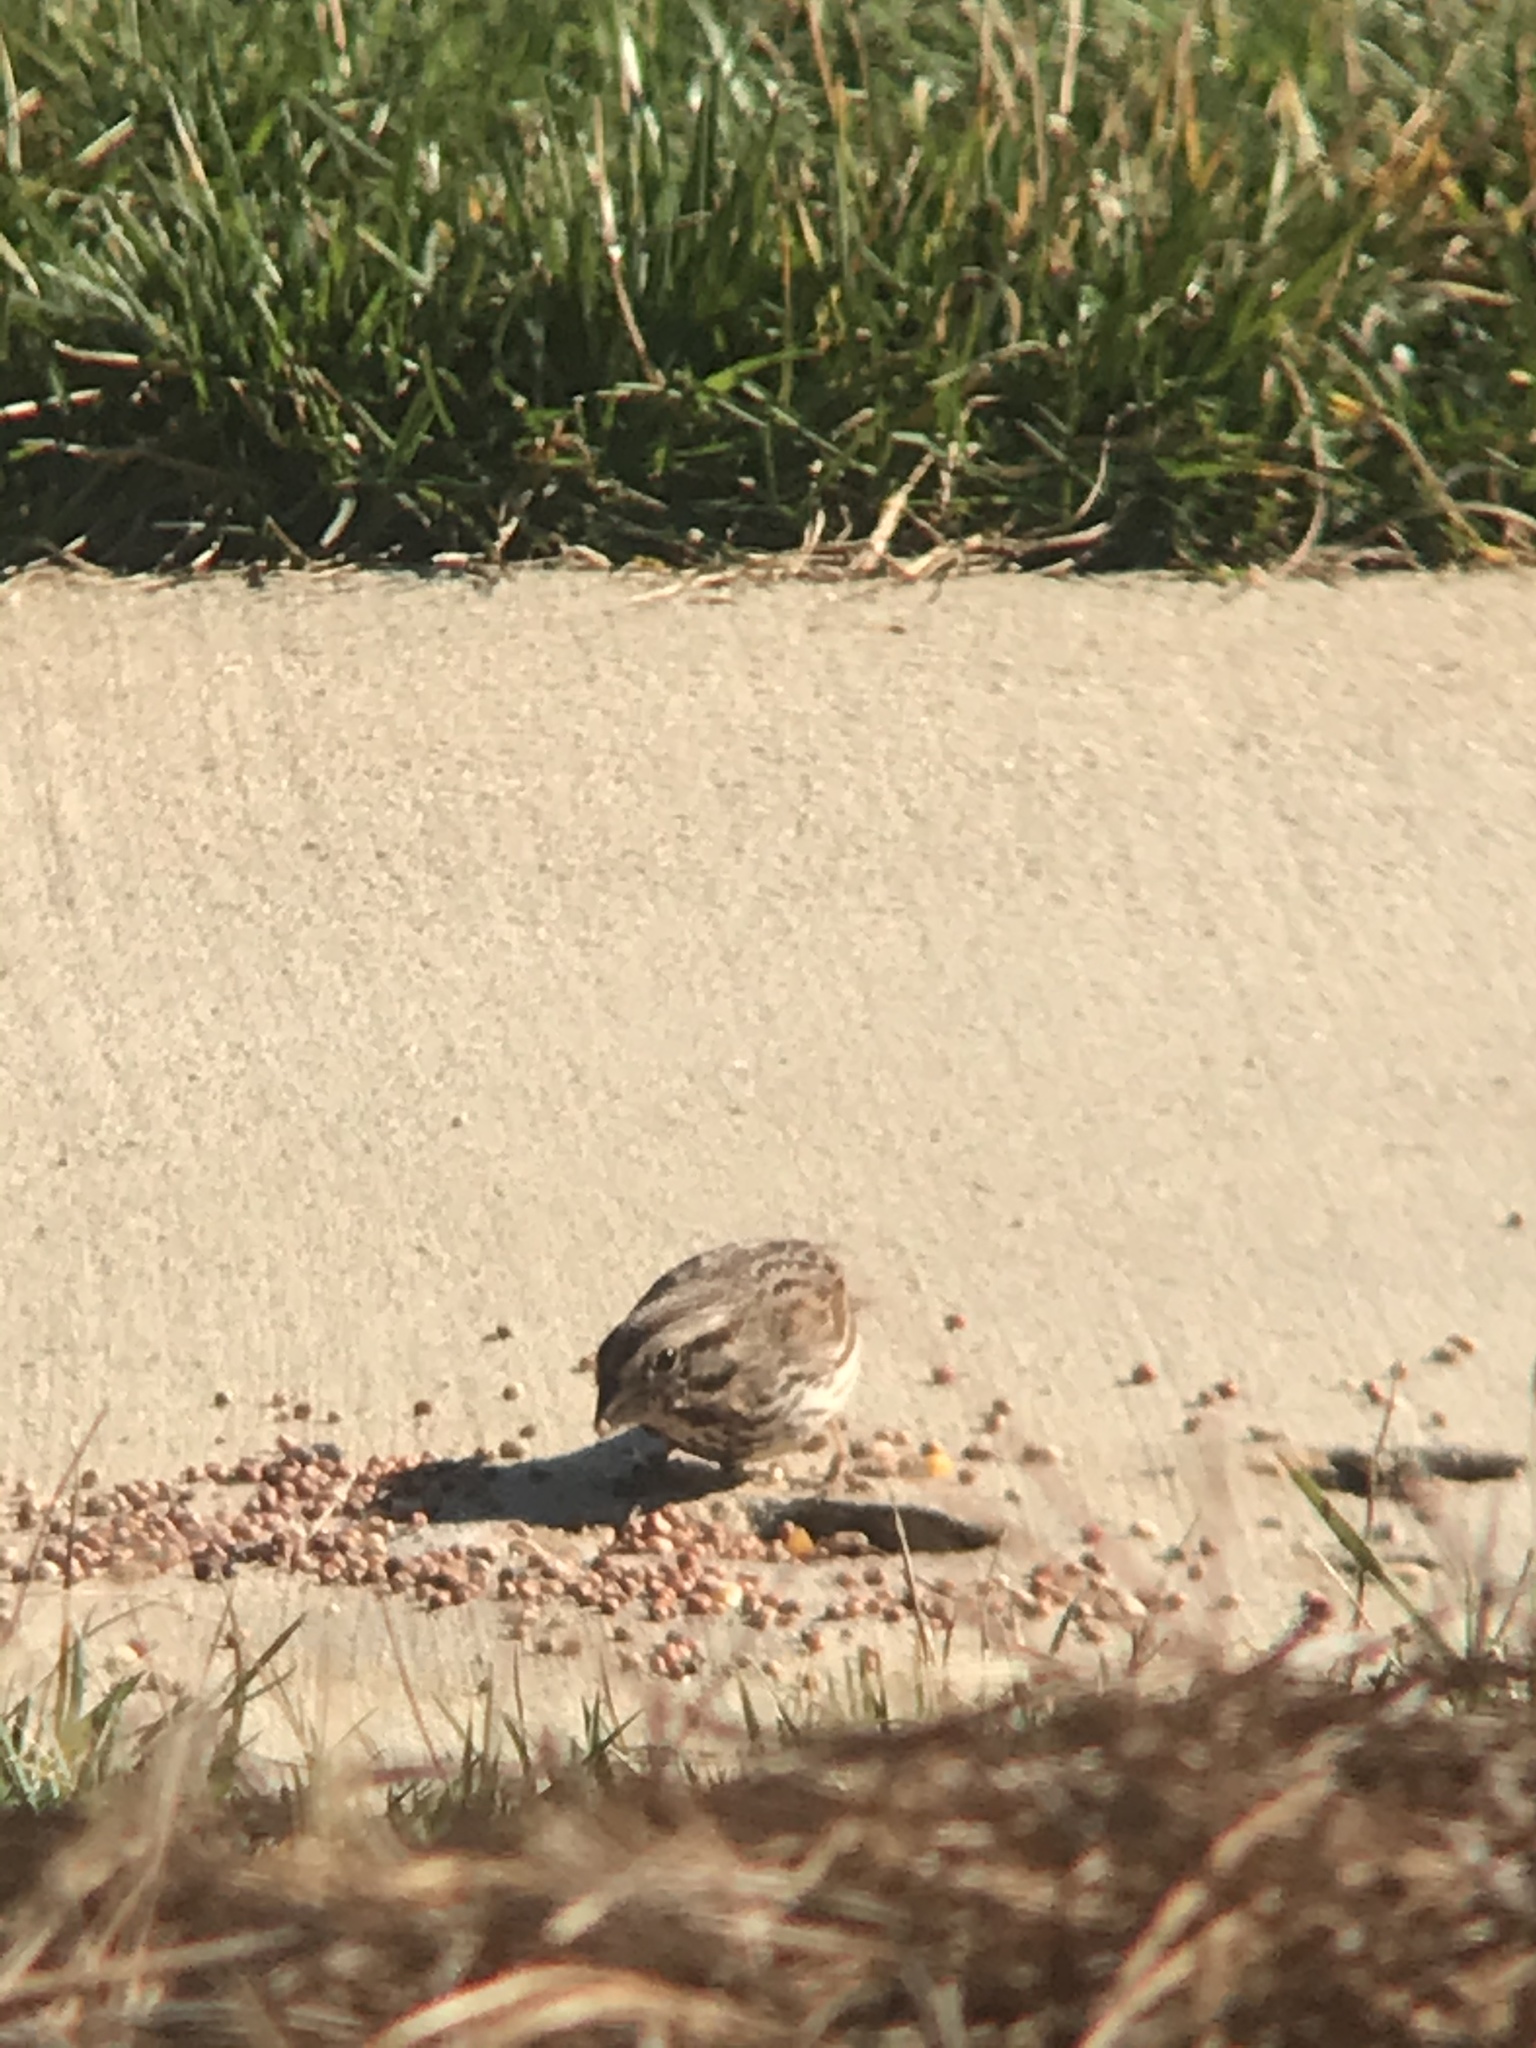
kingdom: Animalia
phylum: Chordata
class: Aves
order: Passeriformes
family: Passerellidae
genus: Melospiza
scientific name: Melospiza melodia
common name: Song sparrow
